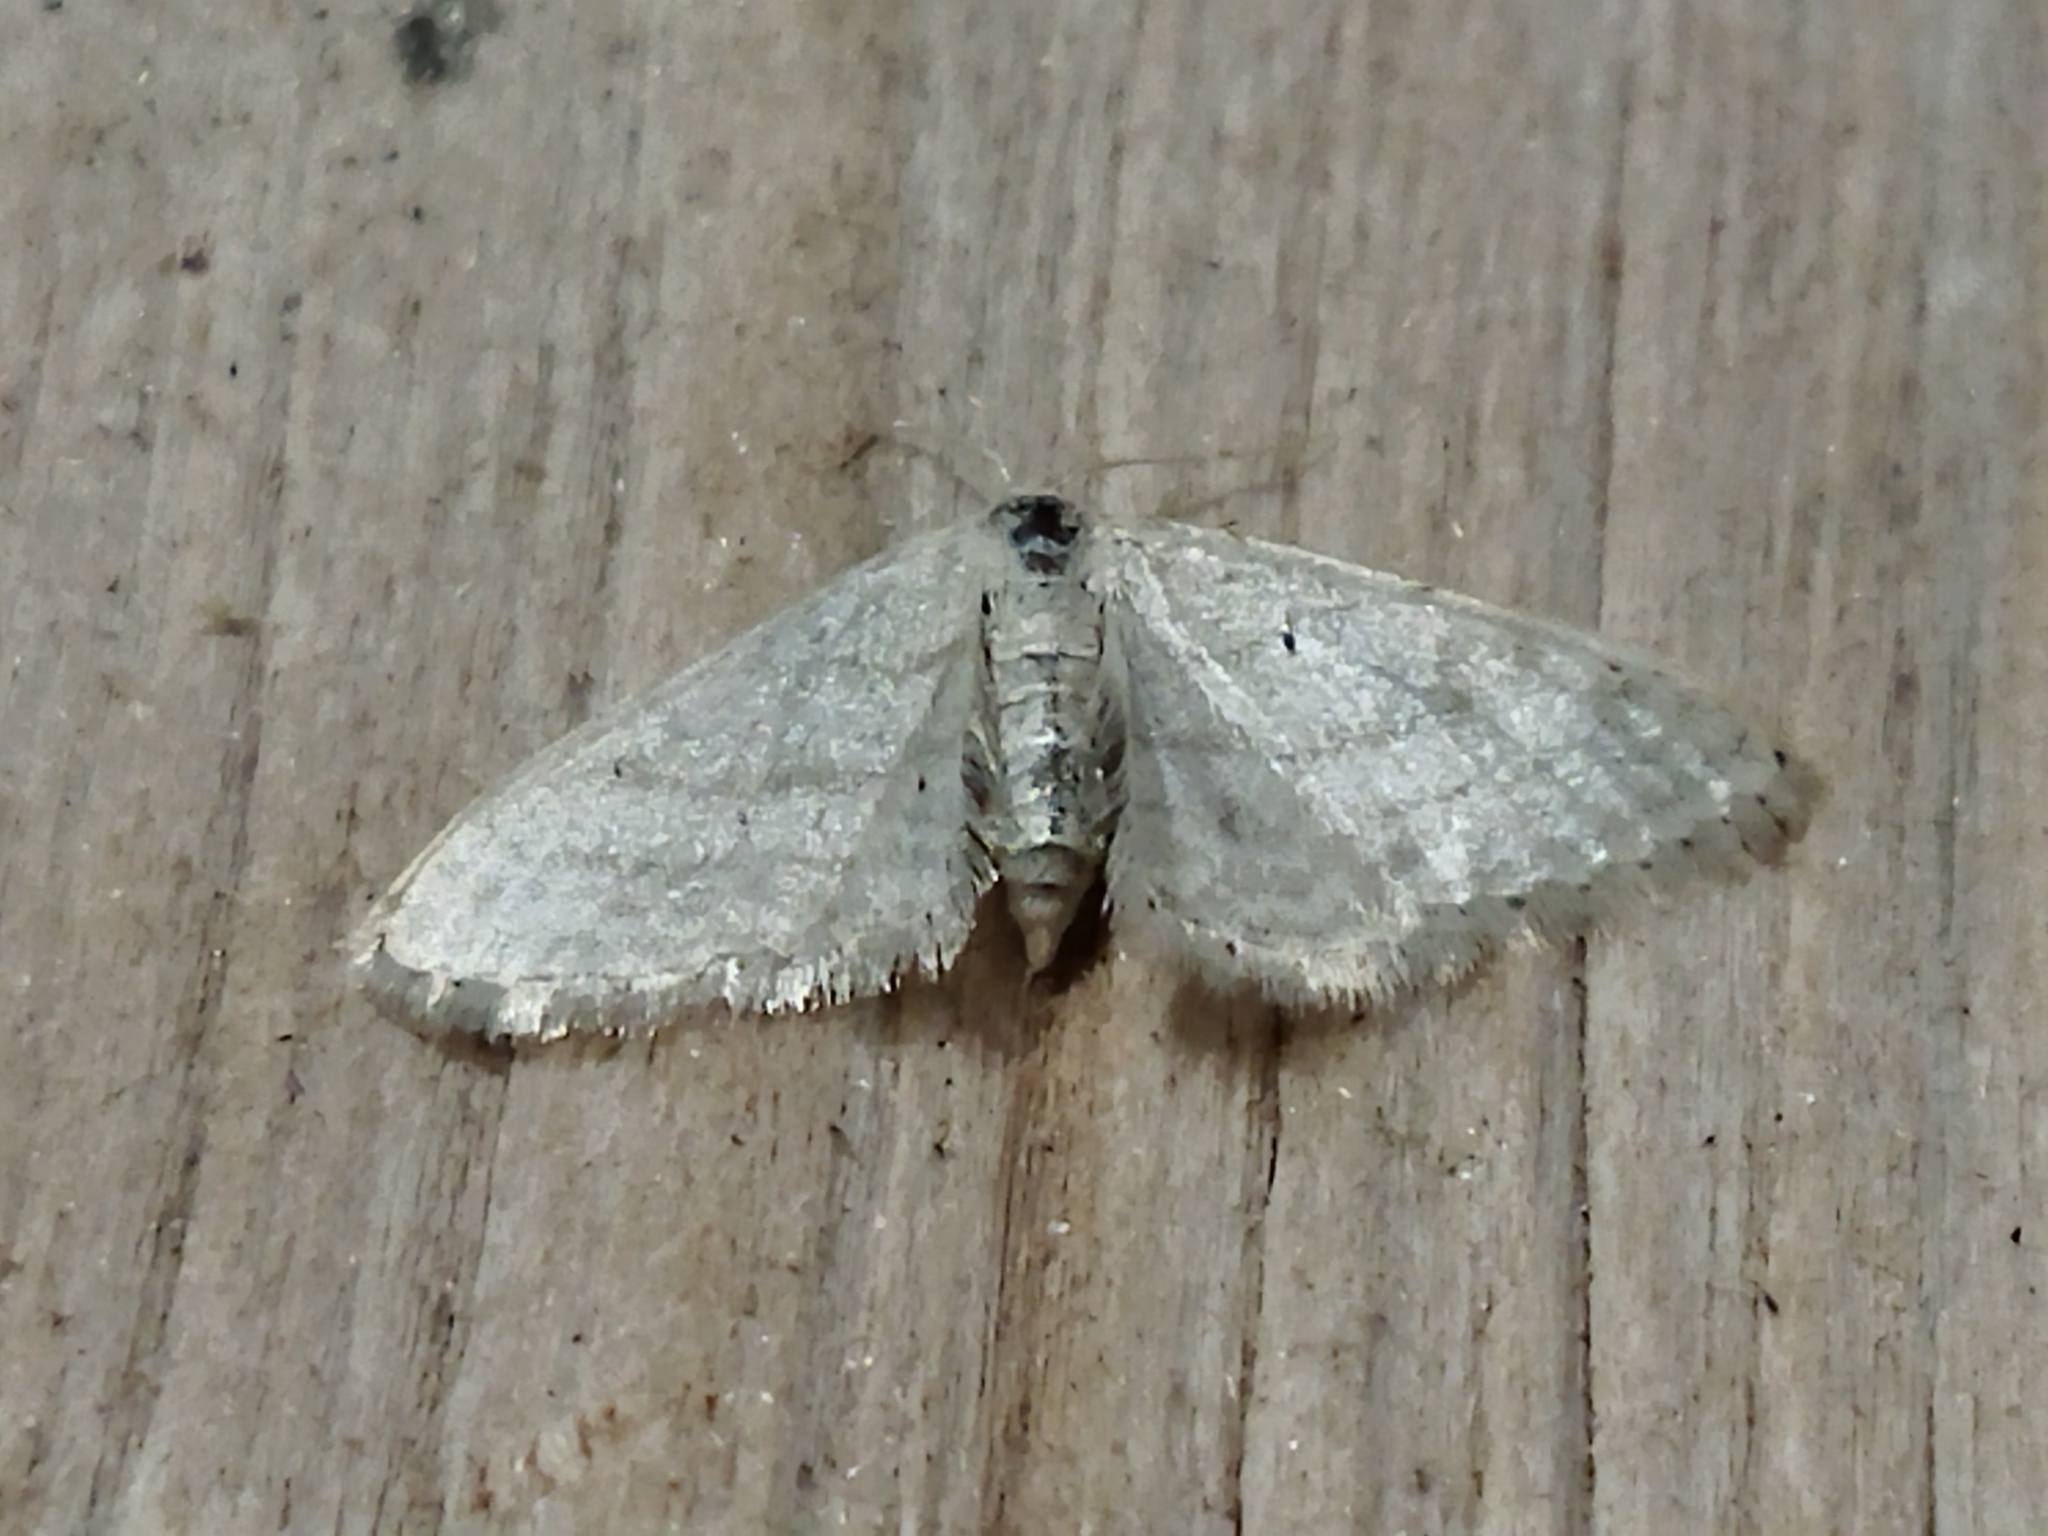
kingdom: Animalia
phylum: Arthropoda
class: Insecta
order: Lepidoptera
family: Geometridae
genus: Idaea
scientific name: Idaea subsericeata
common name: Satin wave
